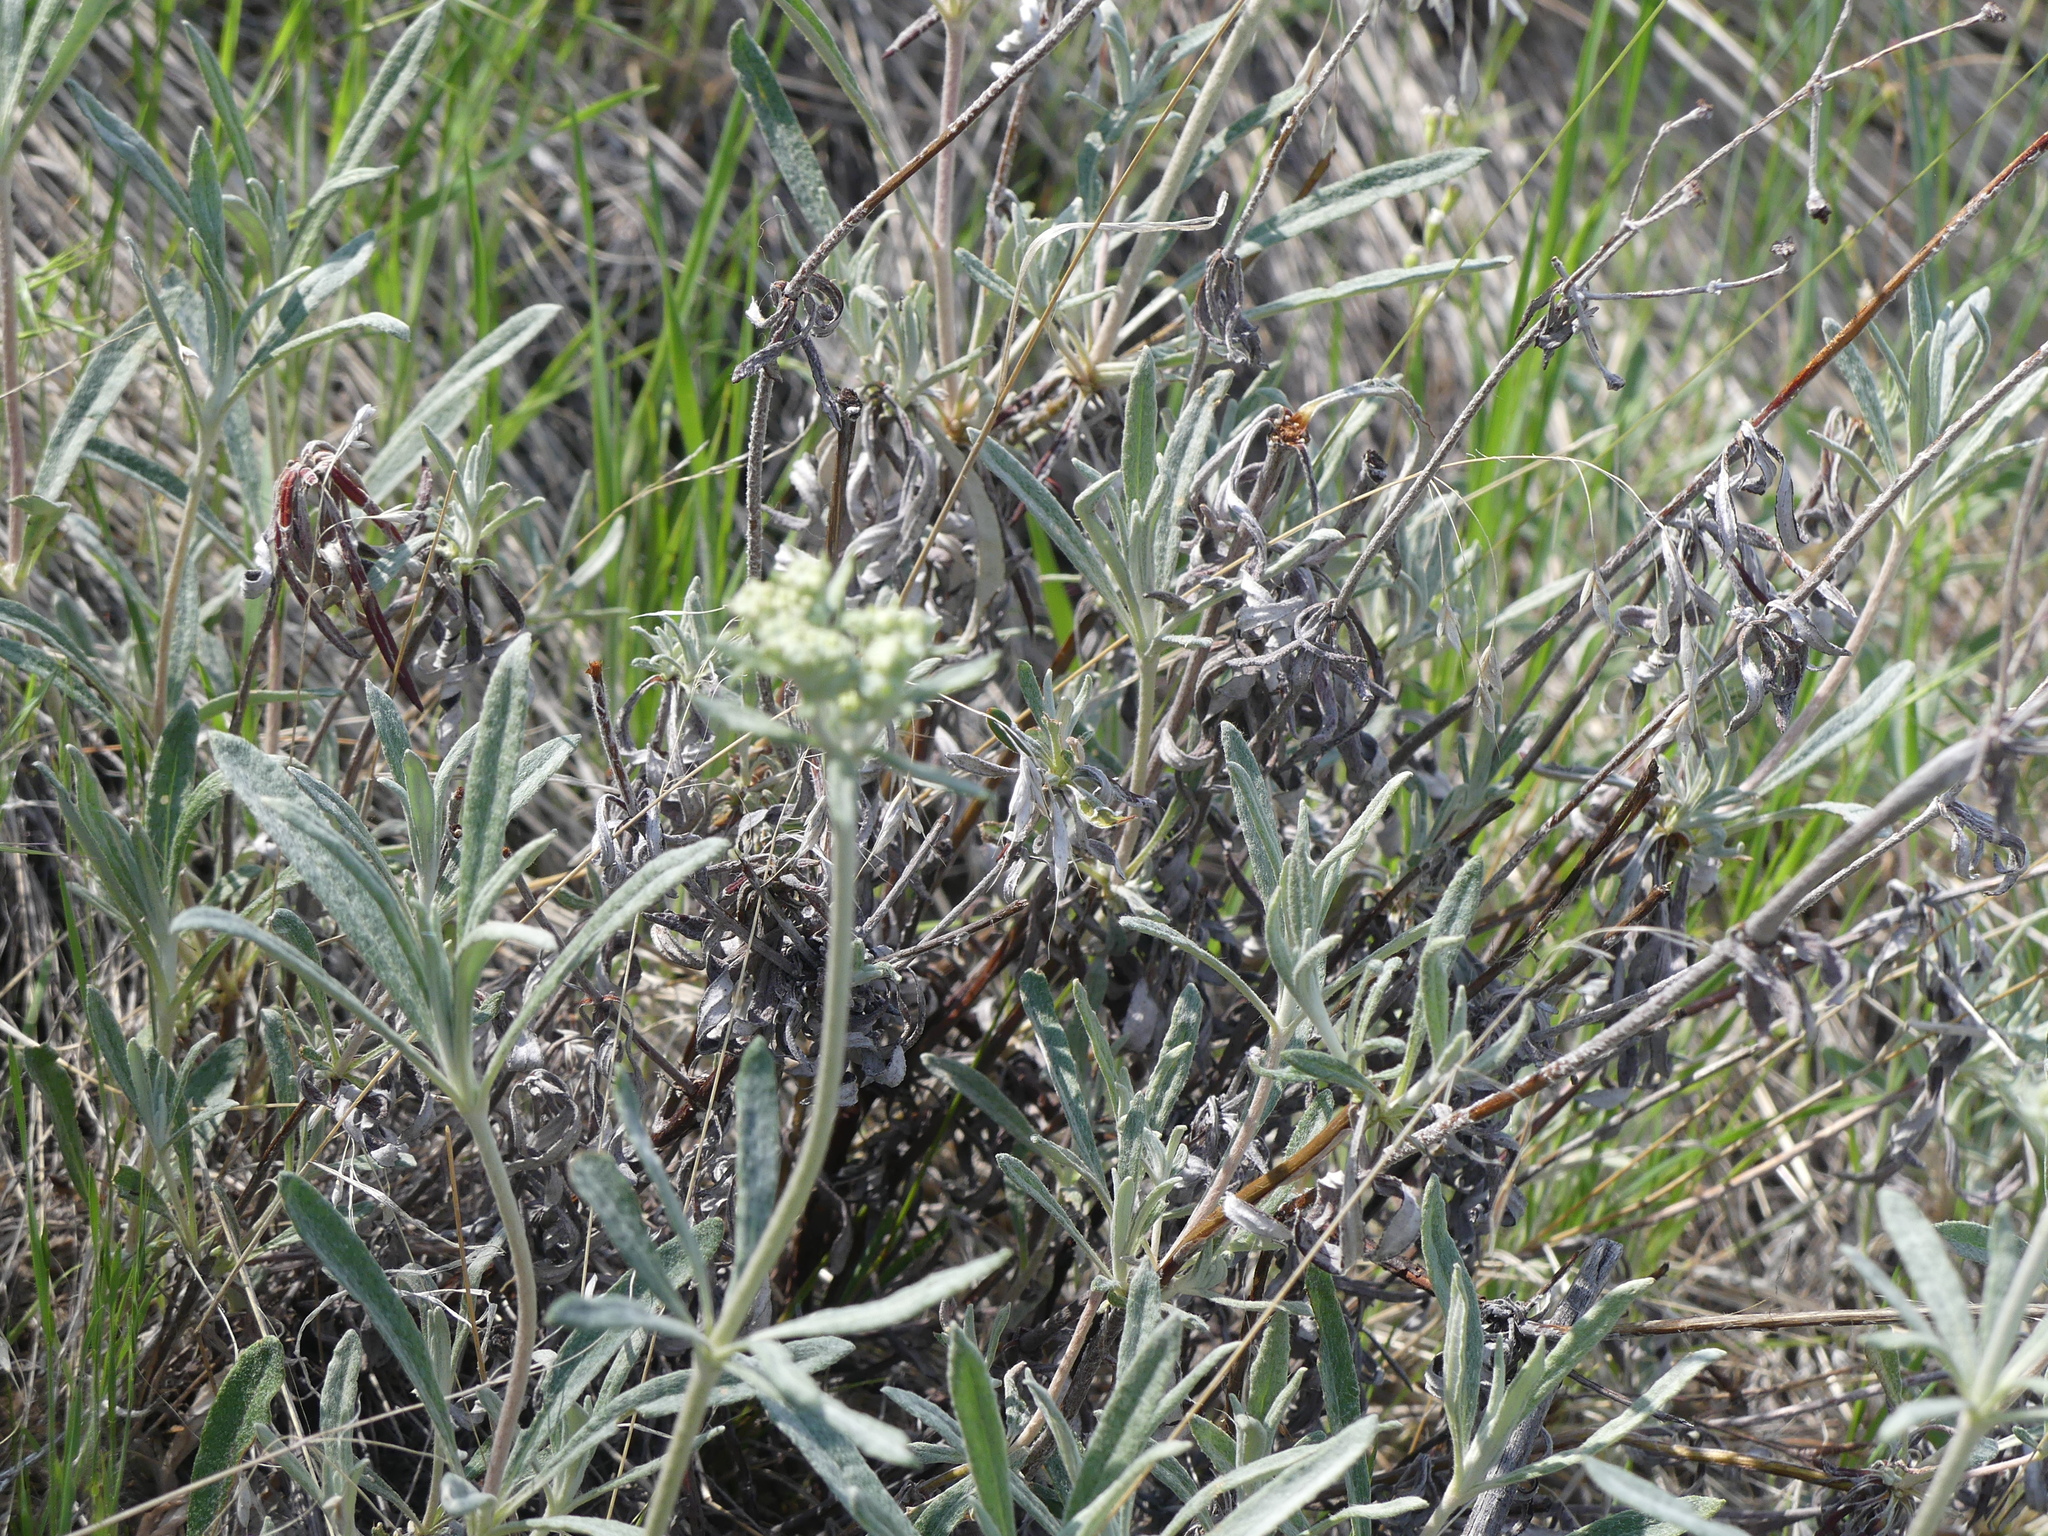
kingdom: Plantae
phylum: Tracheophyta
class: Magnoliopsida
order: Caryophyllales
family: Polygonaceae
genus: Eriogonum
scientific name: Eriogonum heracleoides
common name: Wyeth's buckwheat
